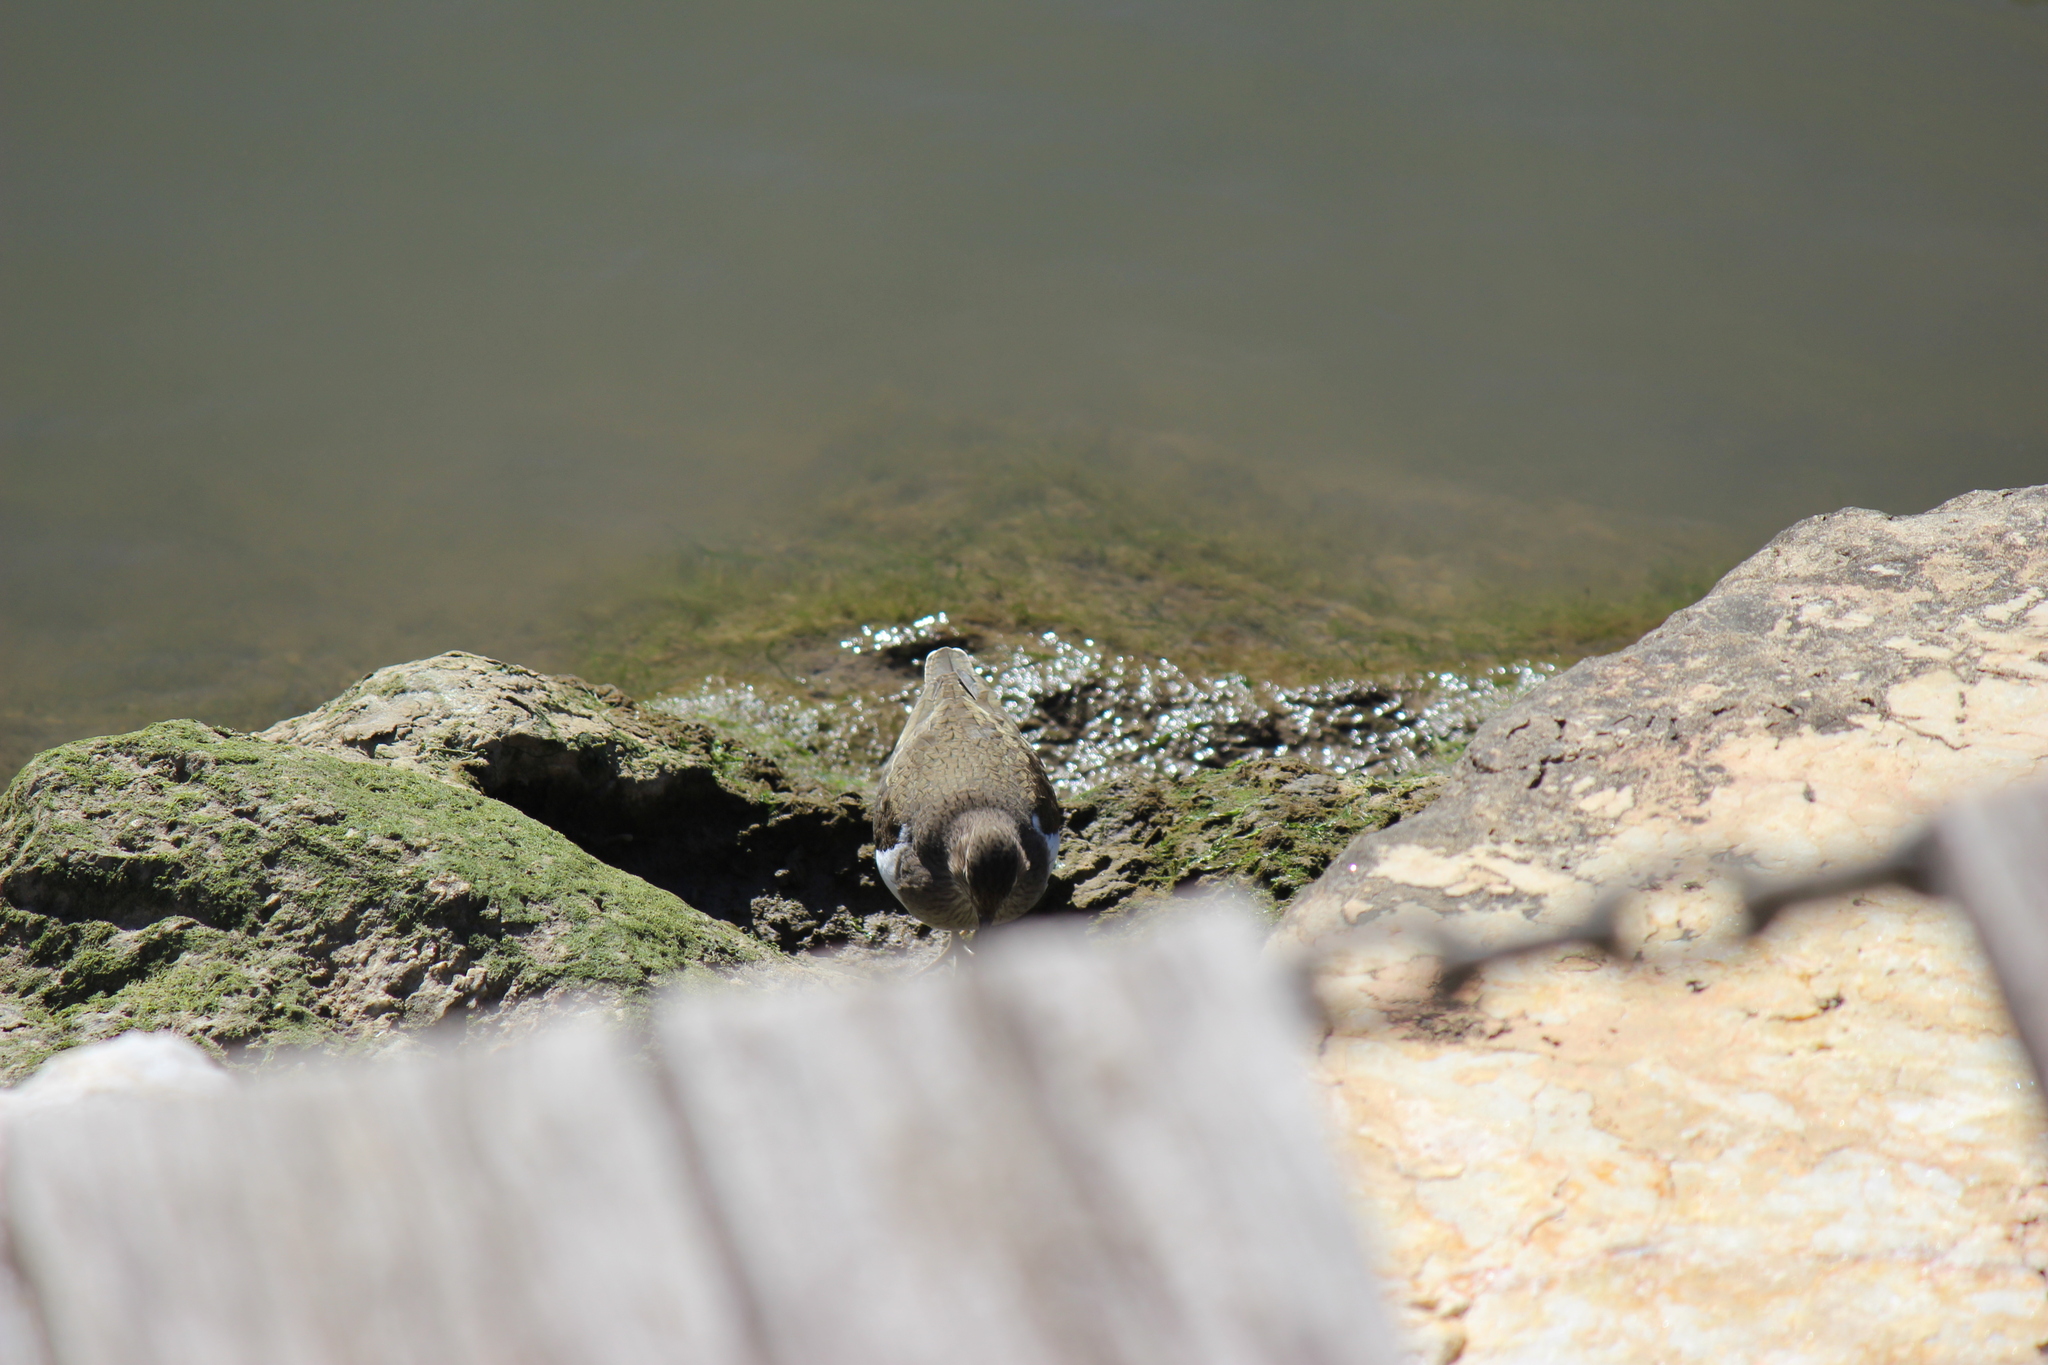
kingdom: Animalia
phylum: Chordata
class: Aves
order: Charadriiformes
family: Scolopacidae
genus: Actitis
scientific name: Actitis hypoleucos
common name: Common sandpiper
